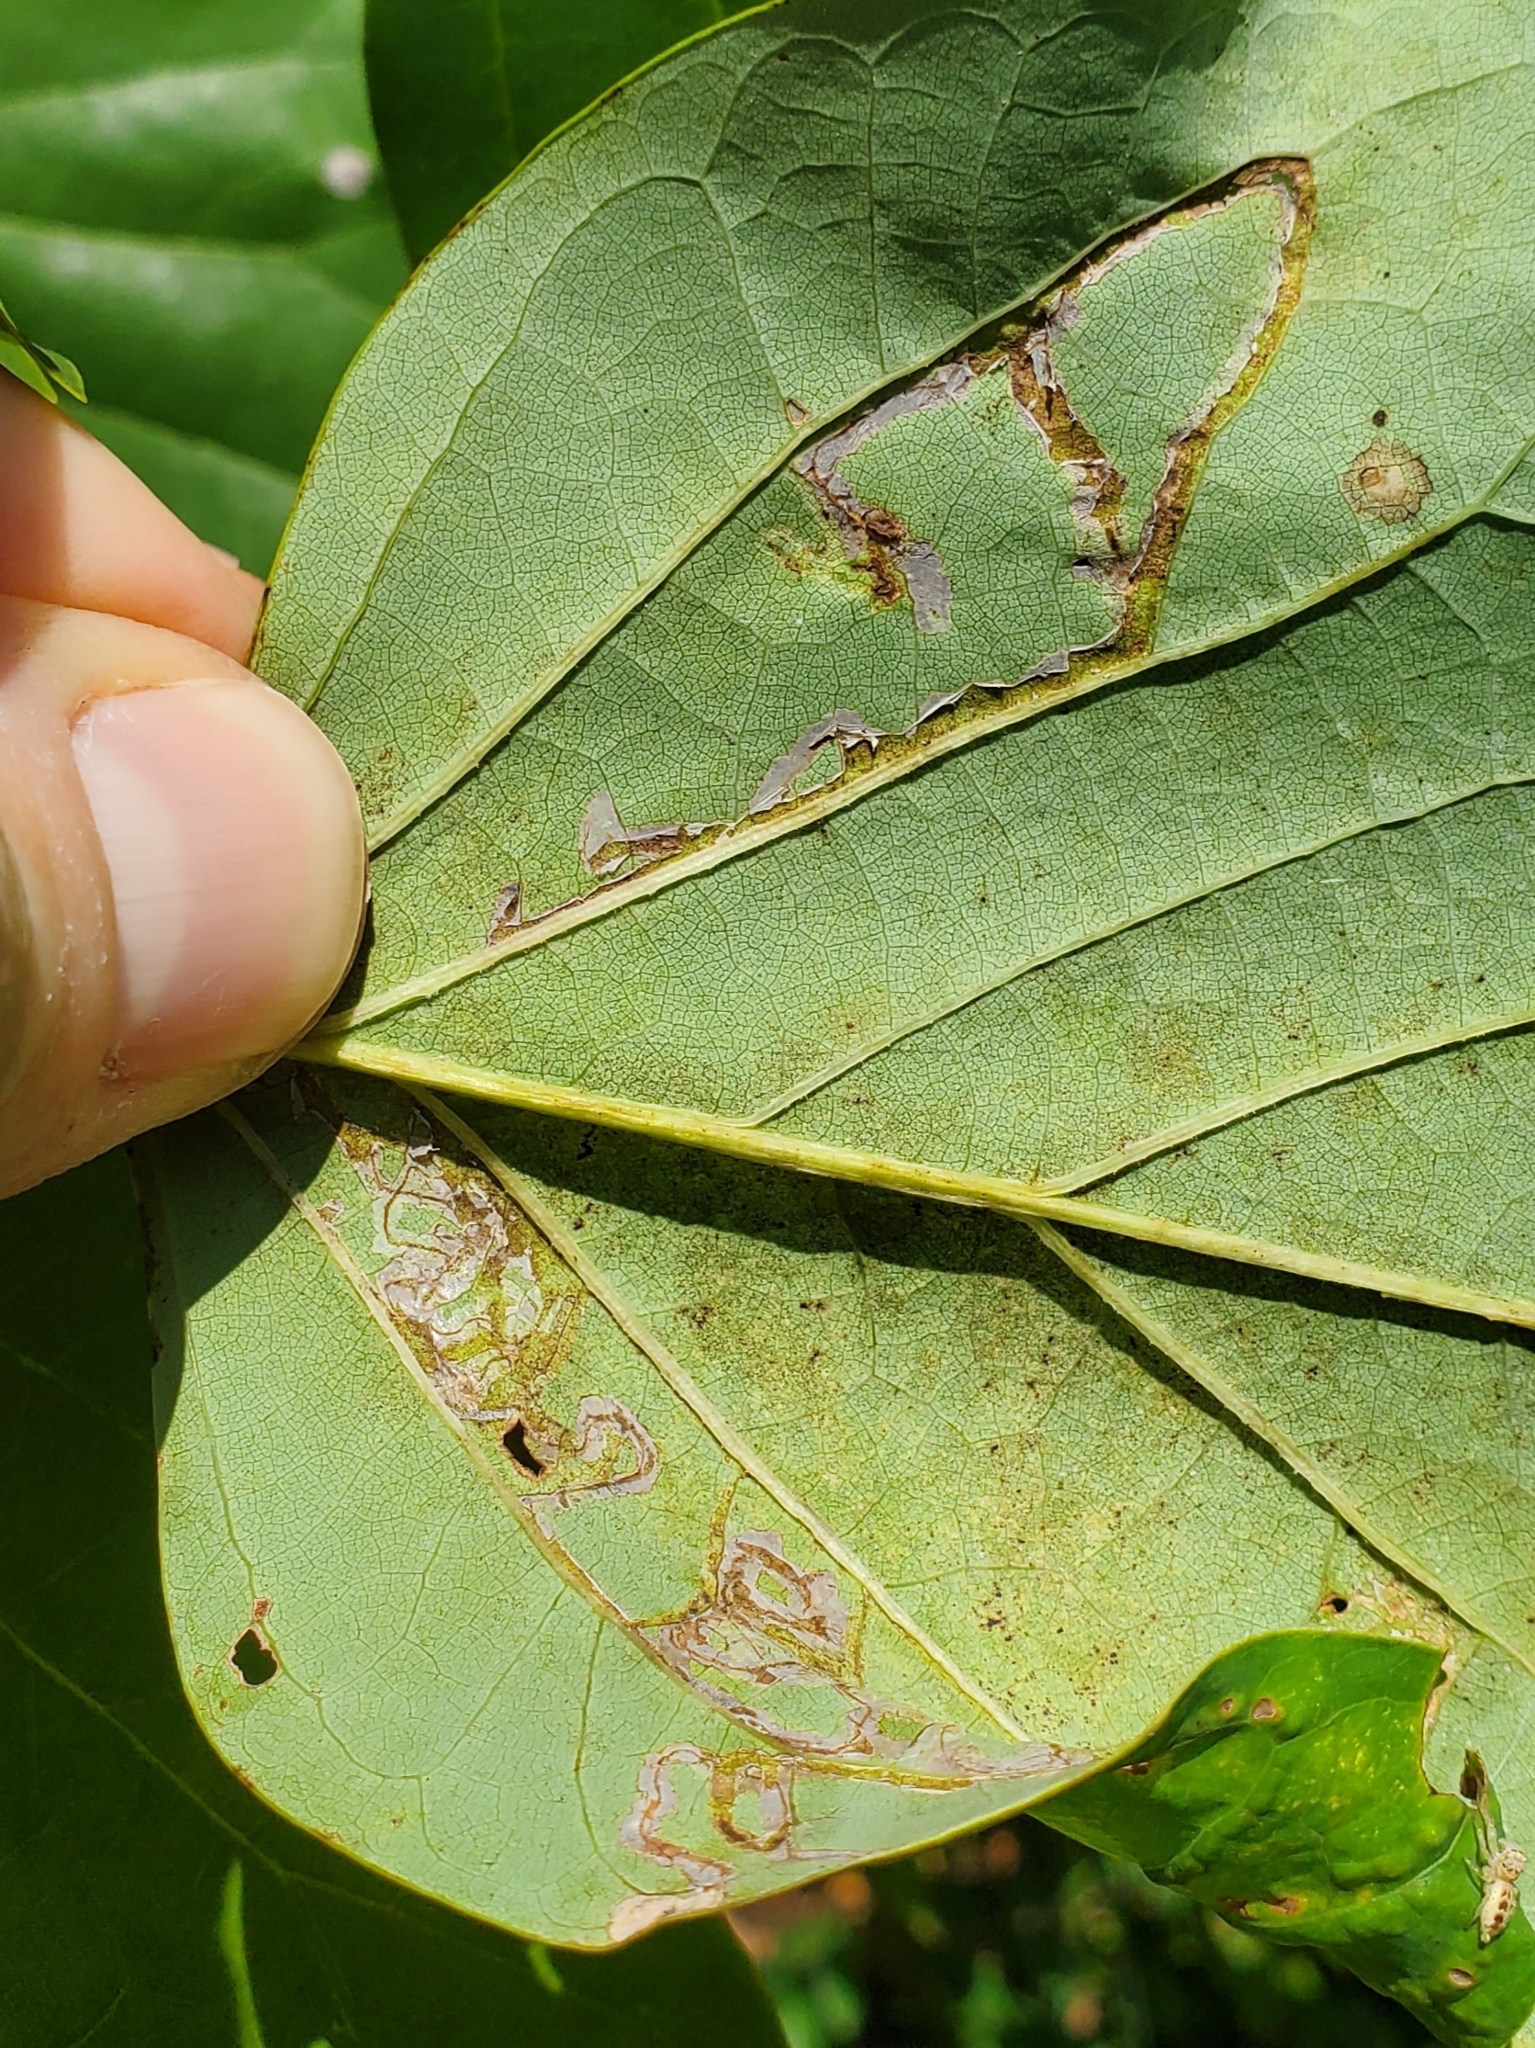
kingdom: Animalia
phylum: Arthropoda
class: Insecta
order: Lepidoptera
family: Gracillariidae
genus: Phyllocnistis
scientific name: Phyllocnistis liriodendronella
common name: Tulip tree leaf miner
